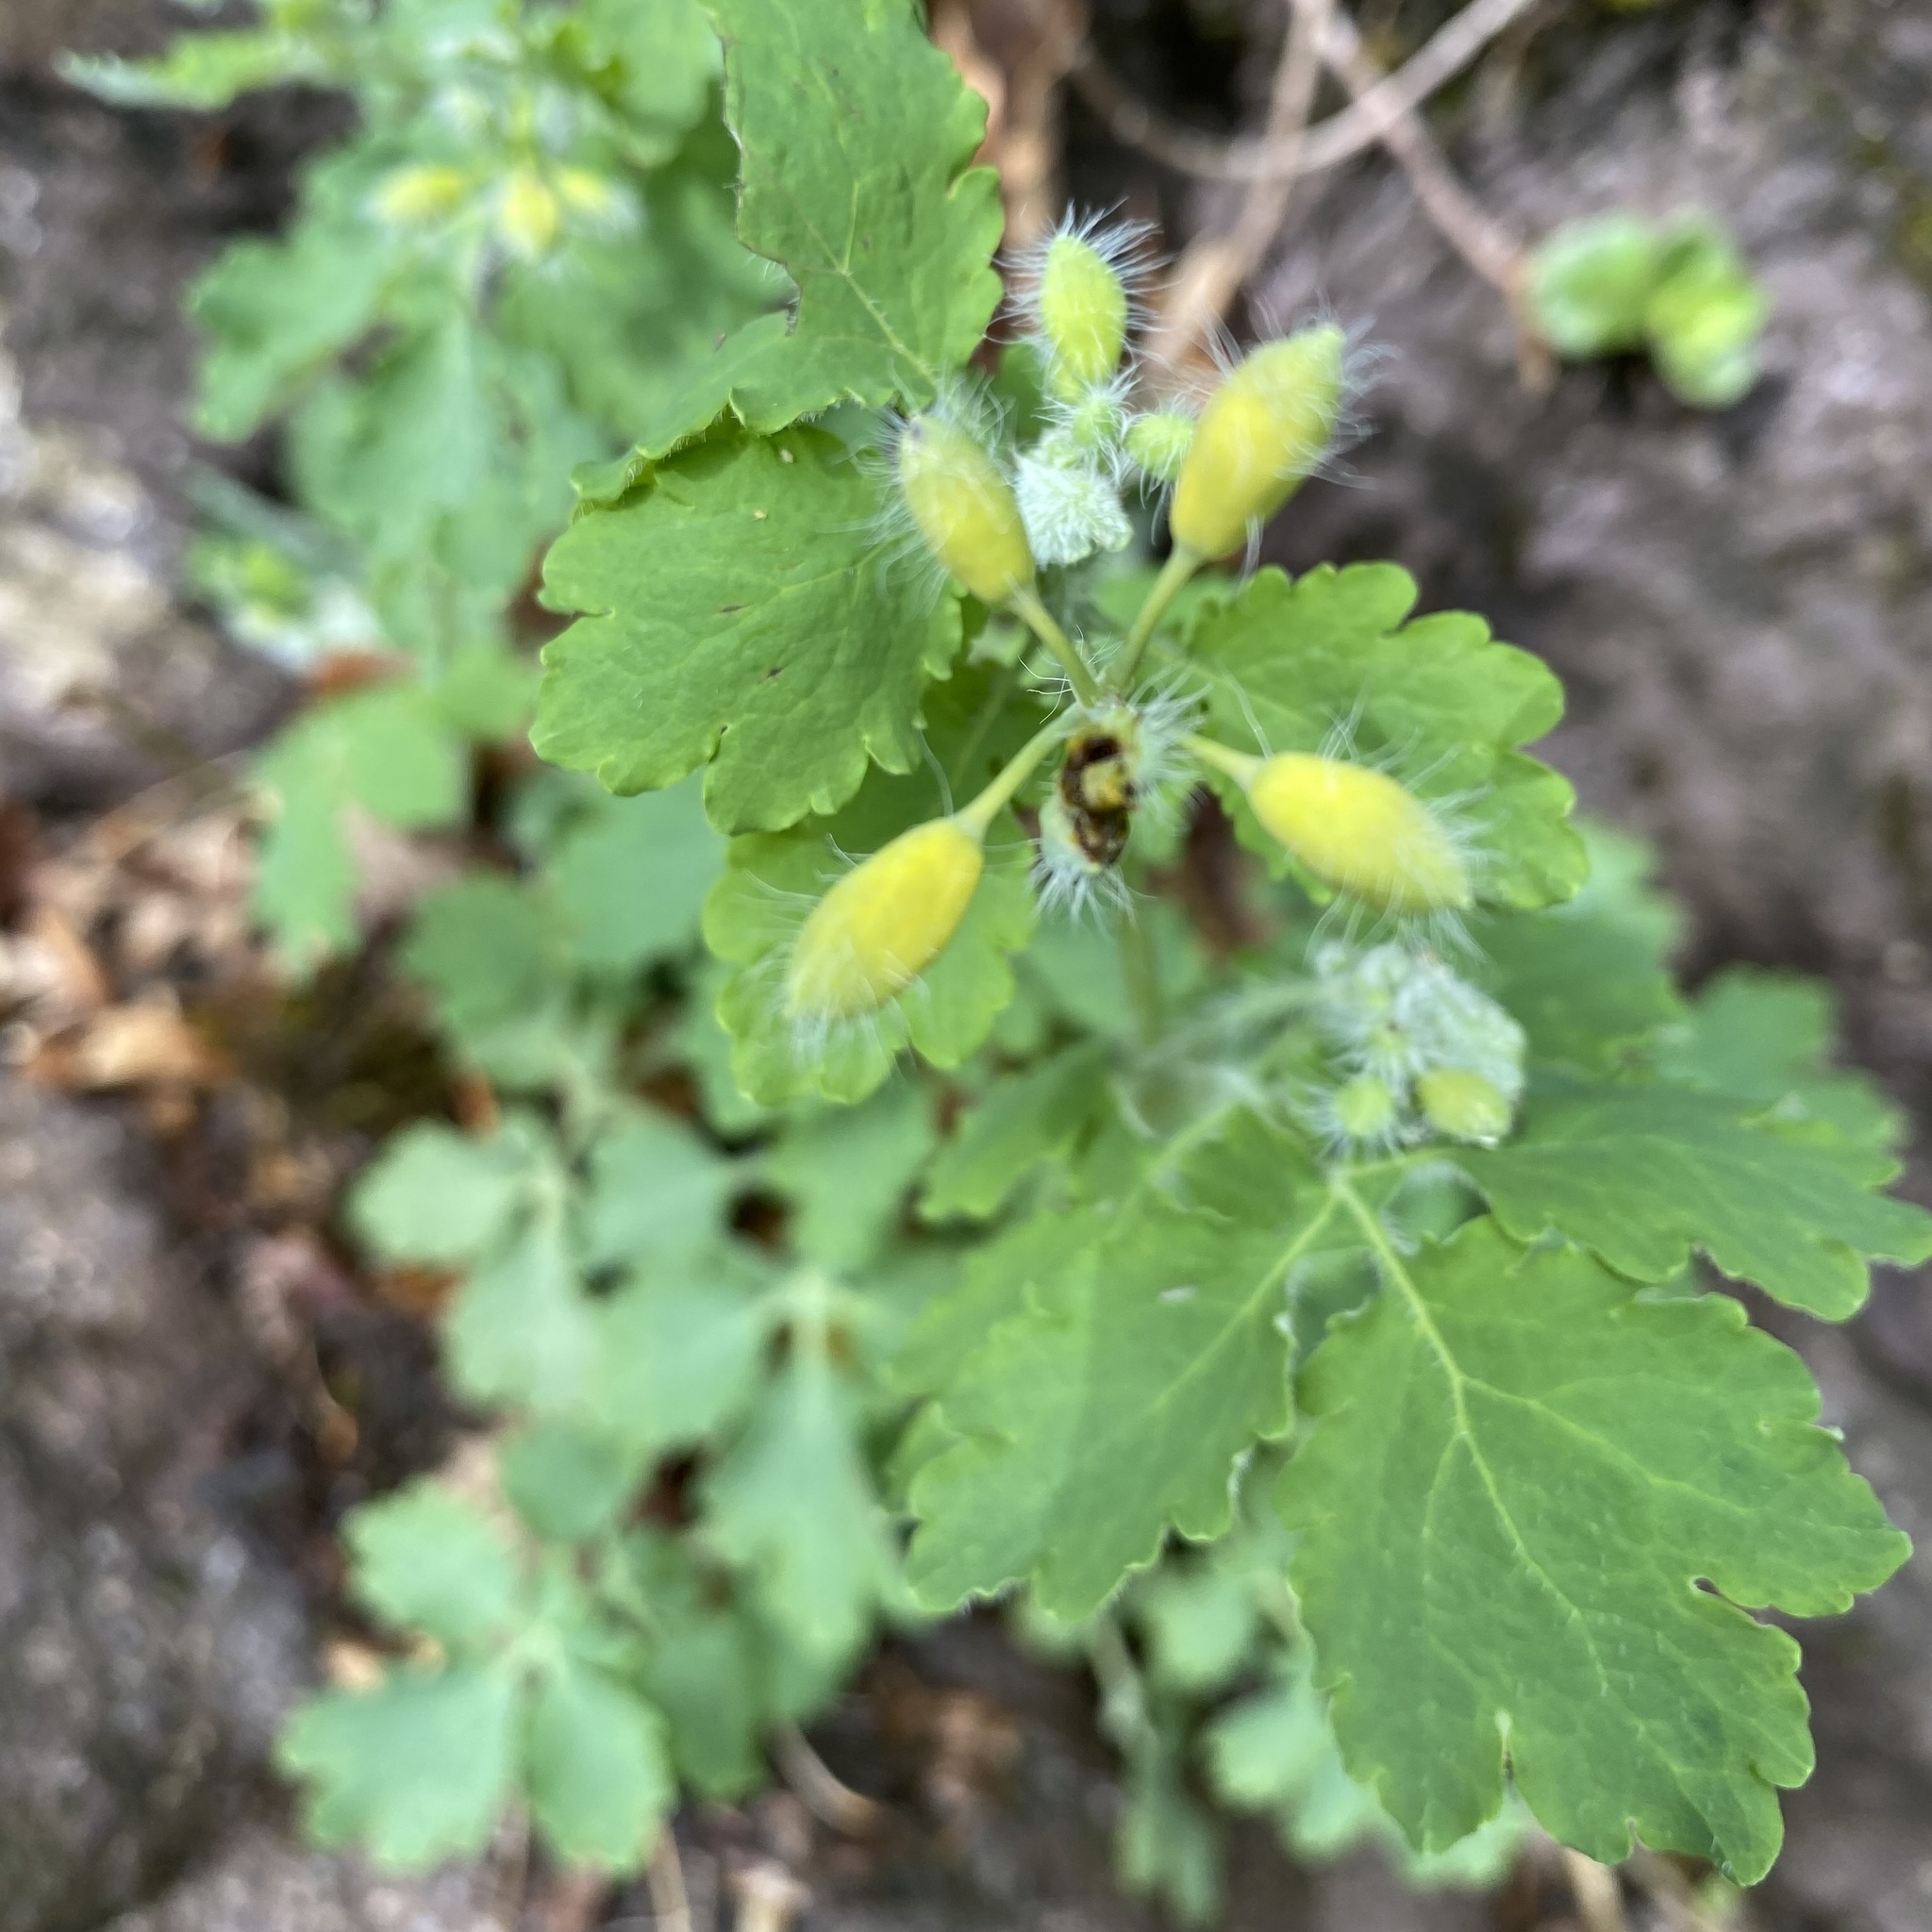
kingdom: Plantae
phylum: Tracheophyta
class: Magnoliopsida
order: Ranunculales
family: Papaveraceae
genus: Chelidonium
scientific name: Chelidonium majus
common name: Greater celandine
